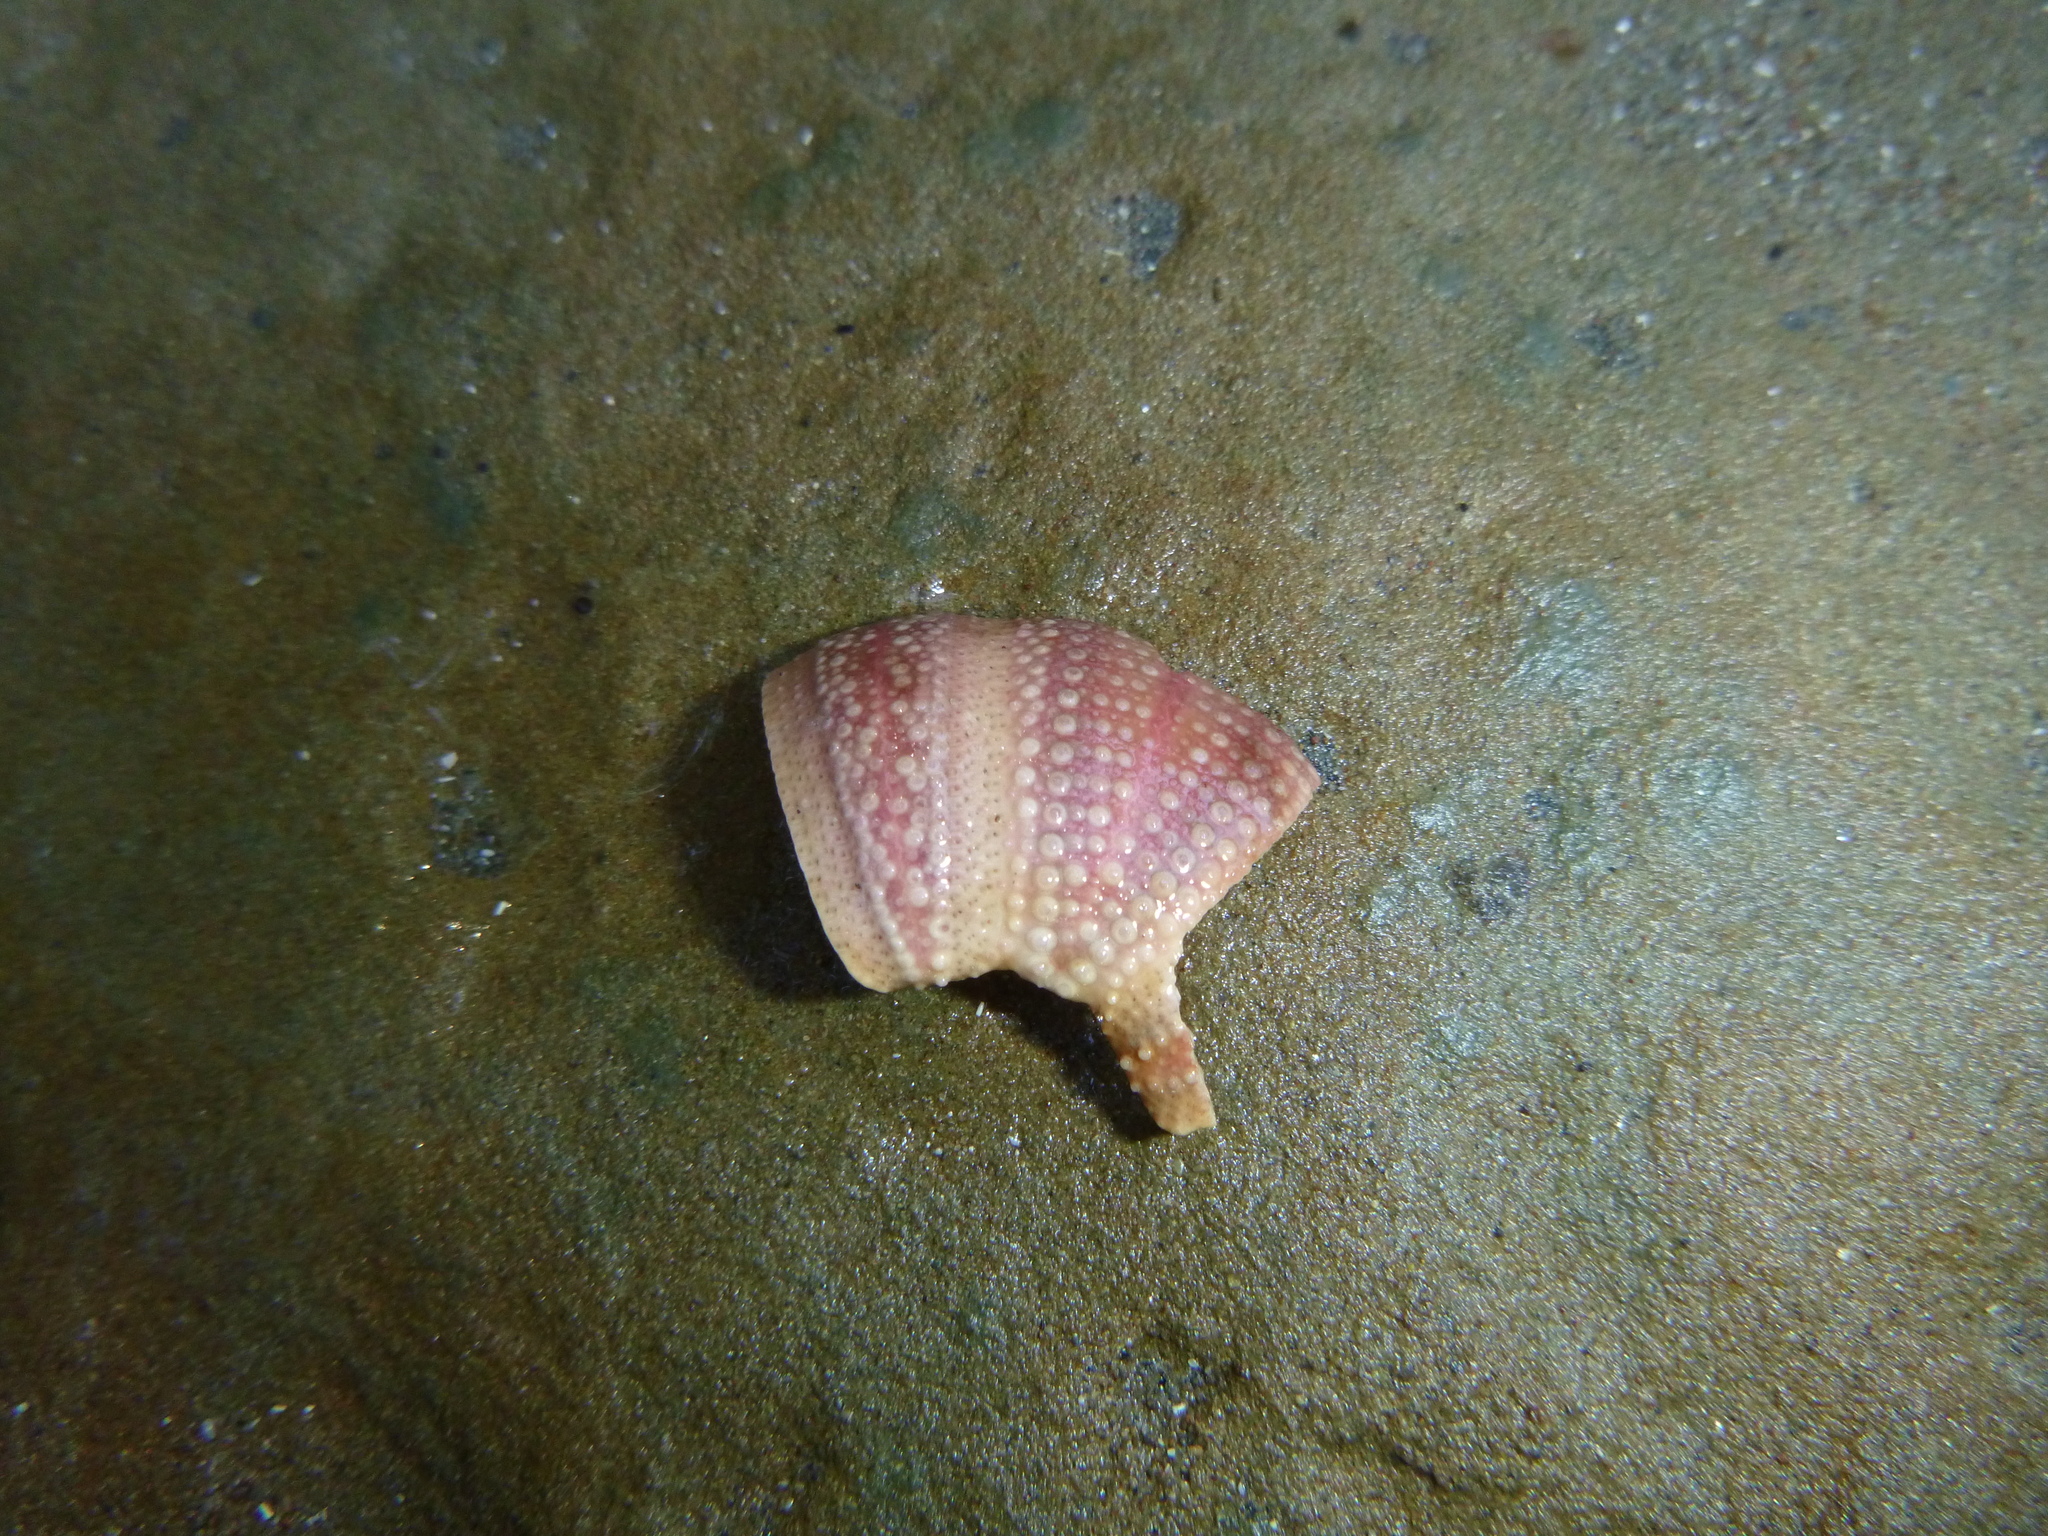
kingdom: Animalia
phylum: Echinodermata
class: Echinoidea
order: Camarodonta
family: Temnopleuridae
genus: Amblypneustes
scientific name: Amblypneustes elevatus
